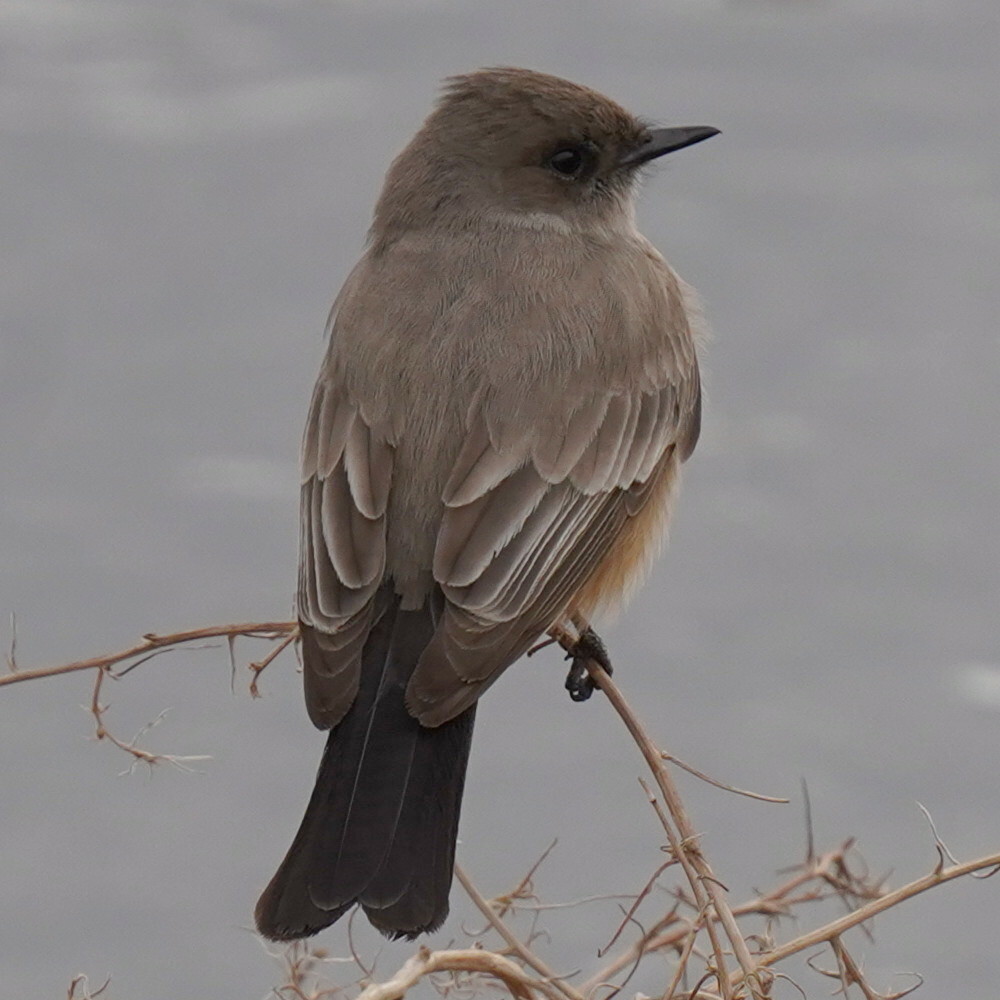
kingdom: Animalia
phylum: Chordata
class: Aves
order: Passeriformes
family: Tyrannidae
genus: Sayornis
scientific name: Sayornis saya
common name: Say's phoebe
